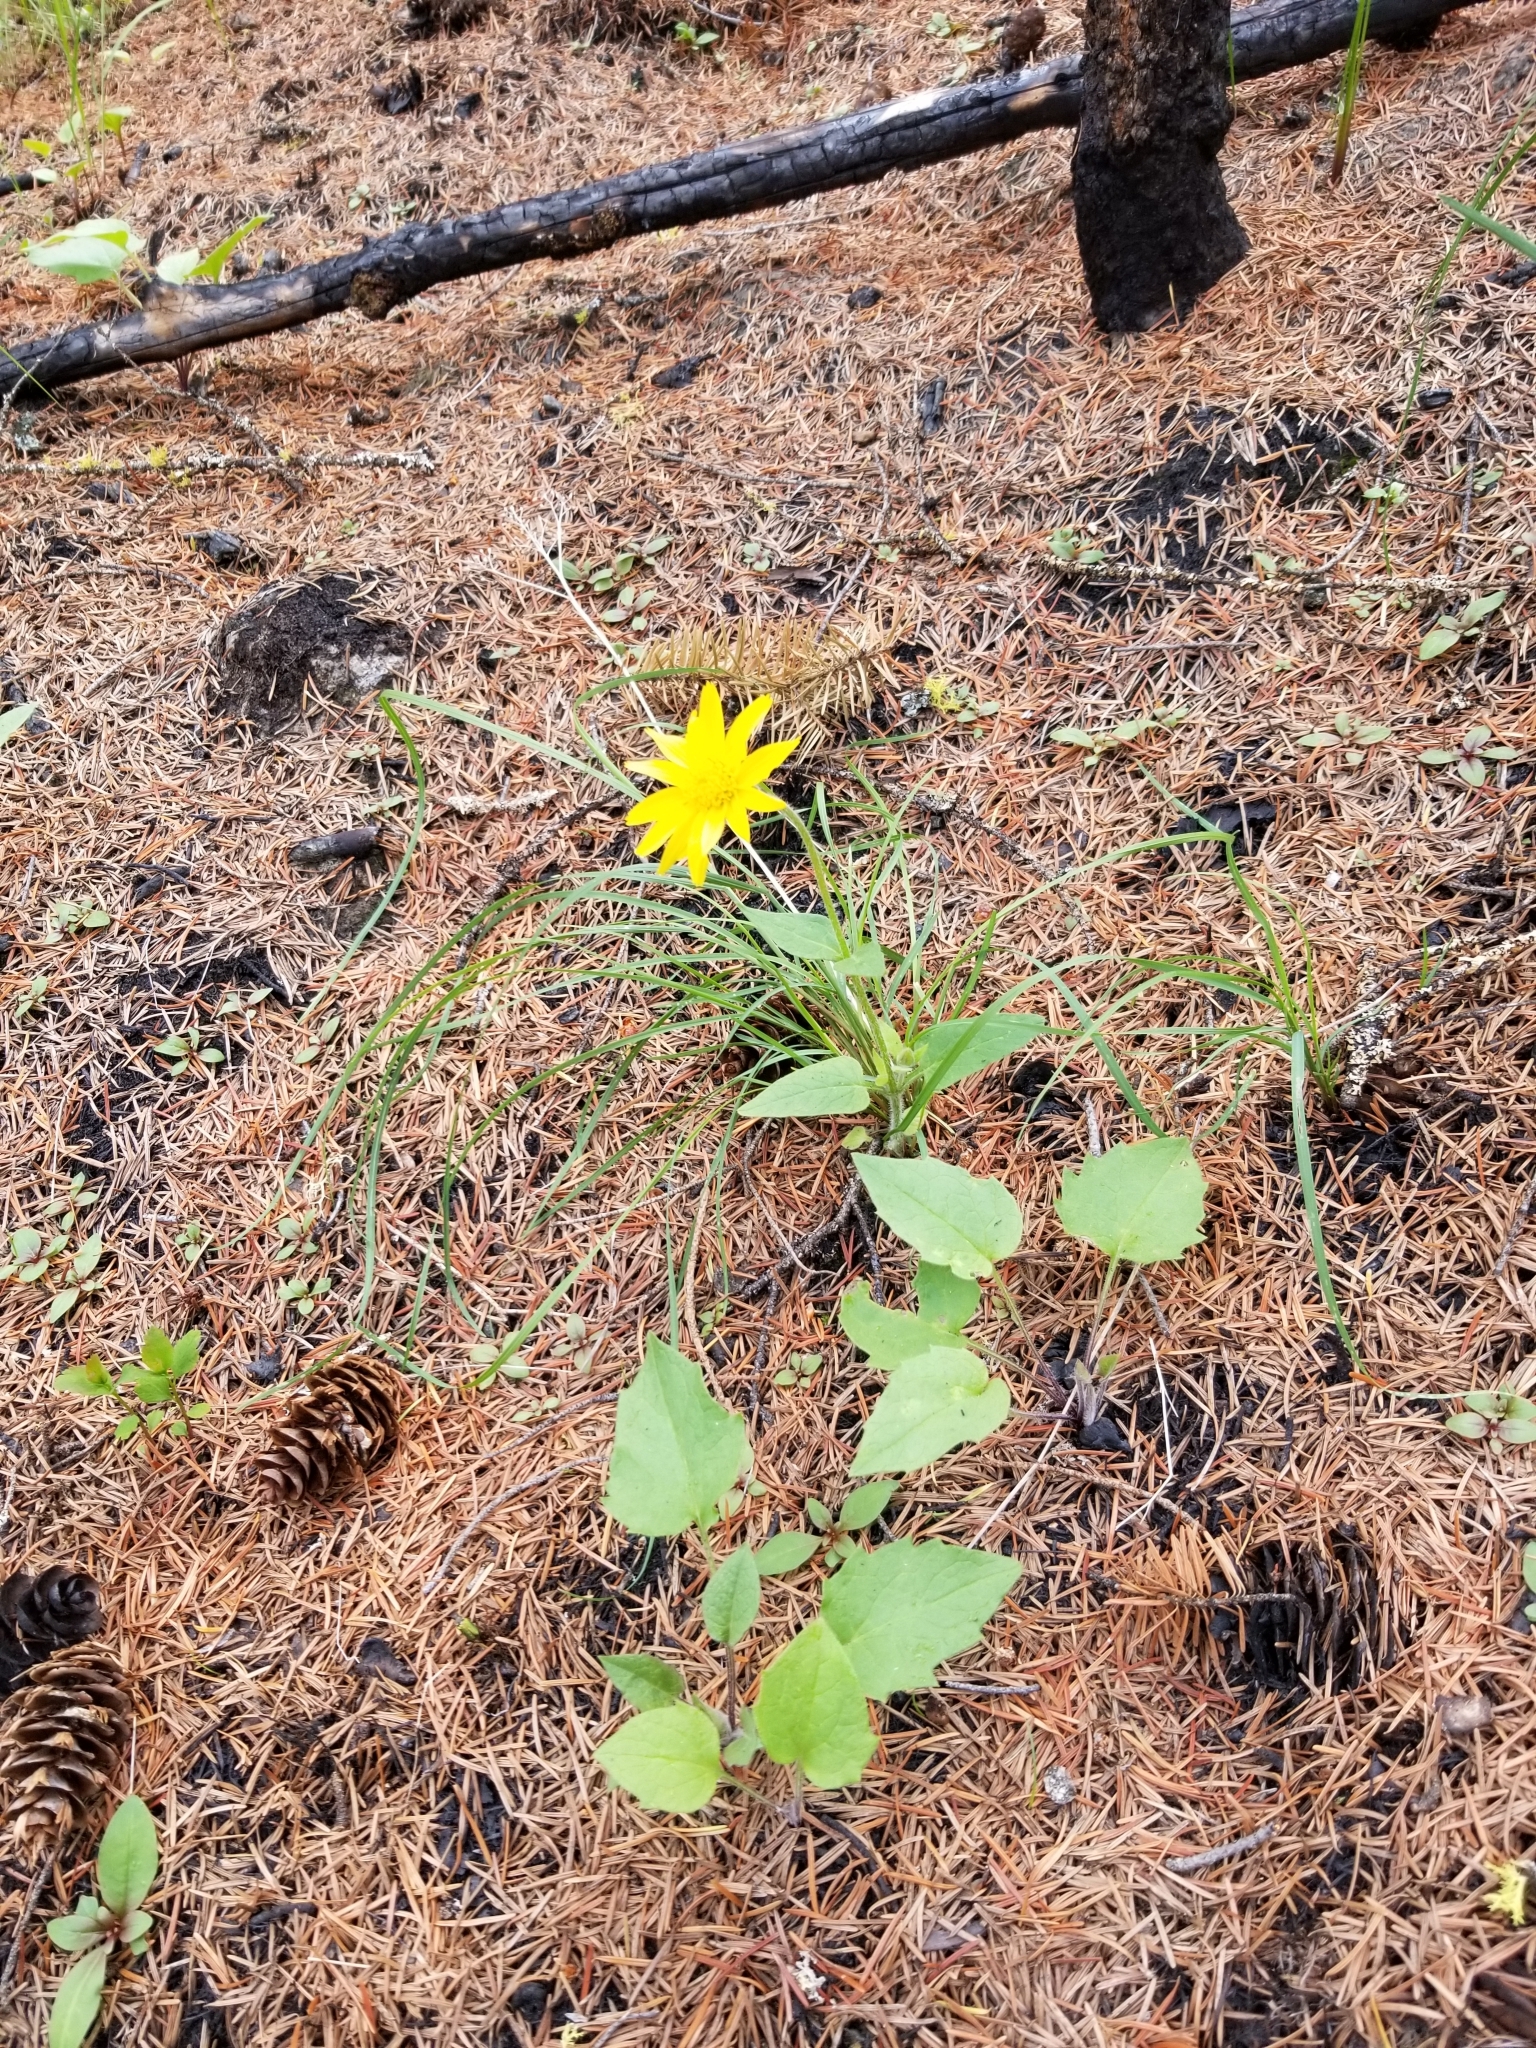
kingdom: Plantae
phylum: Tracheophyta
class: Magnoliopsida
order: Asterales
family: Asteraceae
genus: Arnica
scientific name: Arnica cordifolia
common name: Heart-leaf arnica
